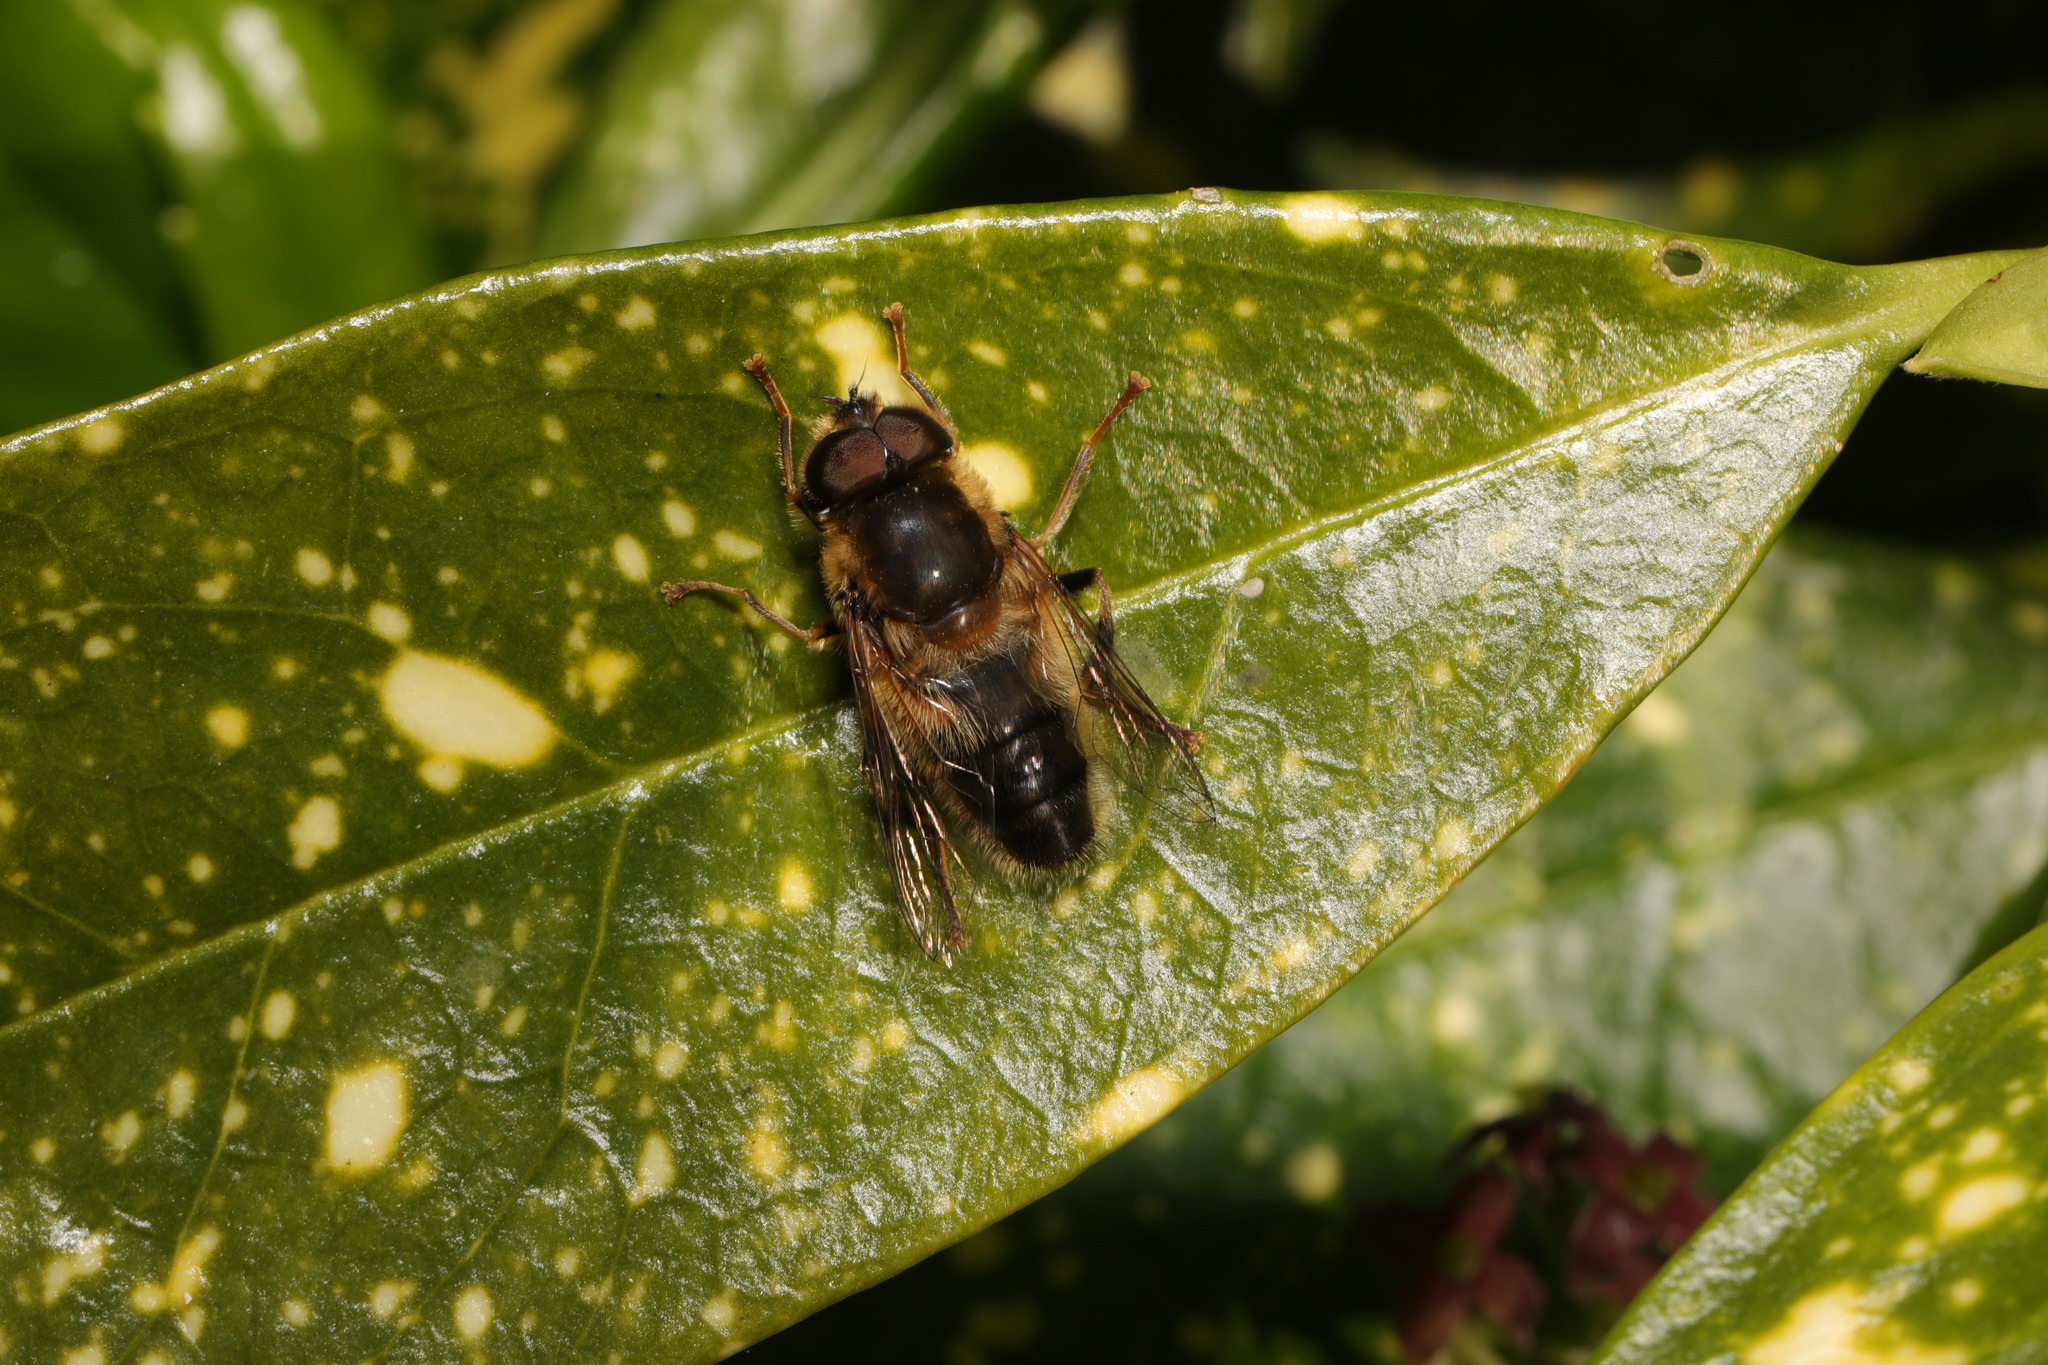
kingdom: Animalia
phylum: Arthropoda
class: Insecta
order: Diptera
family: Syrphidae
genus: Eristalis
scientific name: Eristalis pertinax
